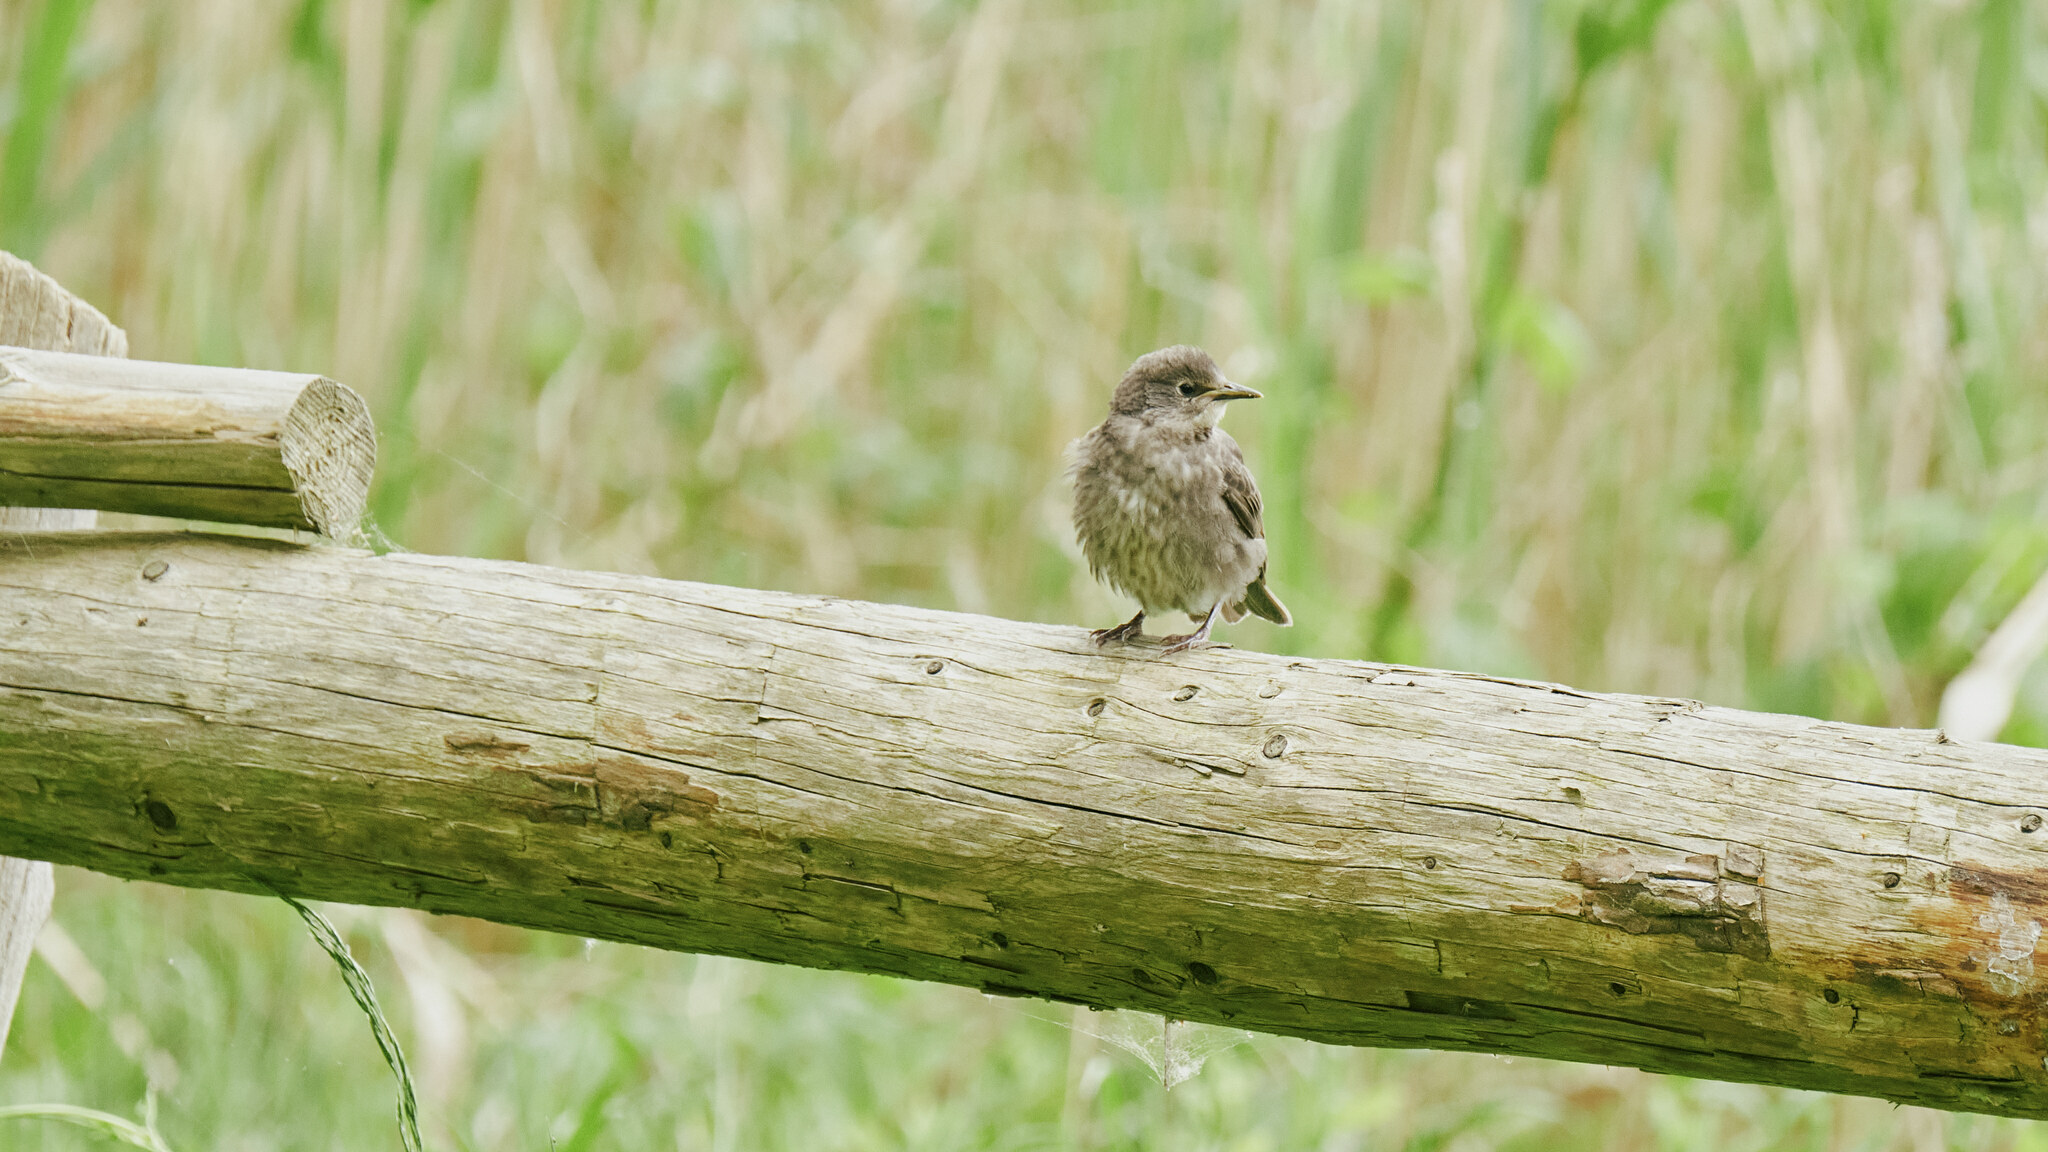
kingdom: Animalia
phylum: Chordata
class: Aves
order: Passeriformes
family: Sturnidae
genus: Sturnus
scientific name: Sturnus vulgaris
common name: Common starling
